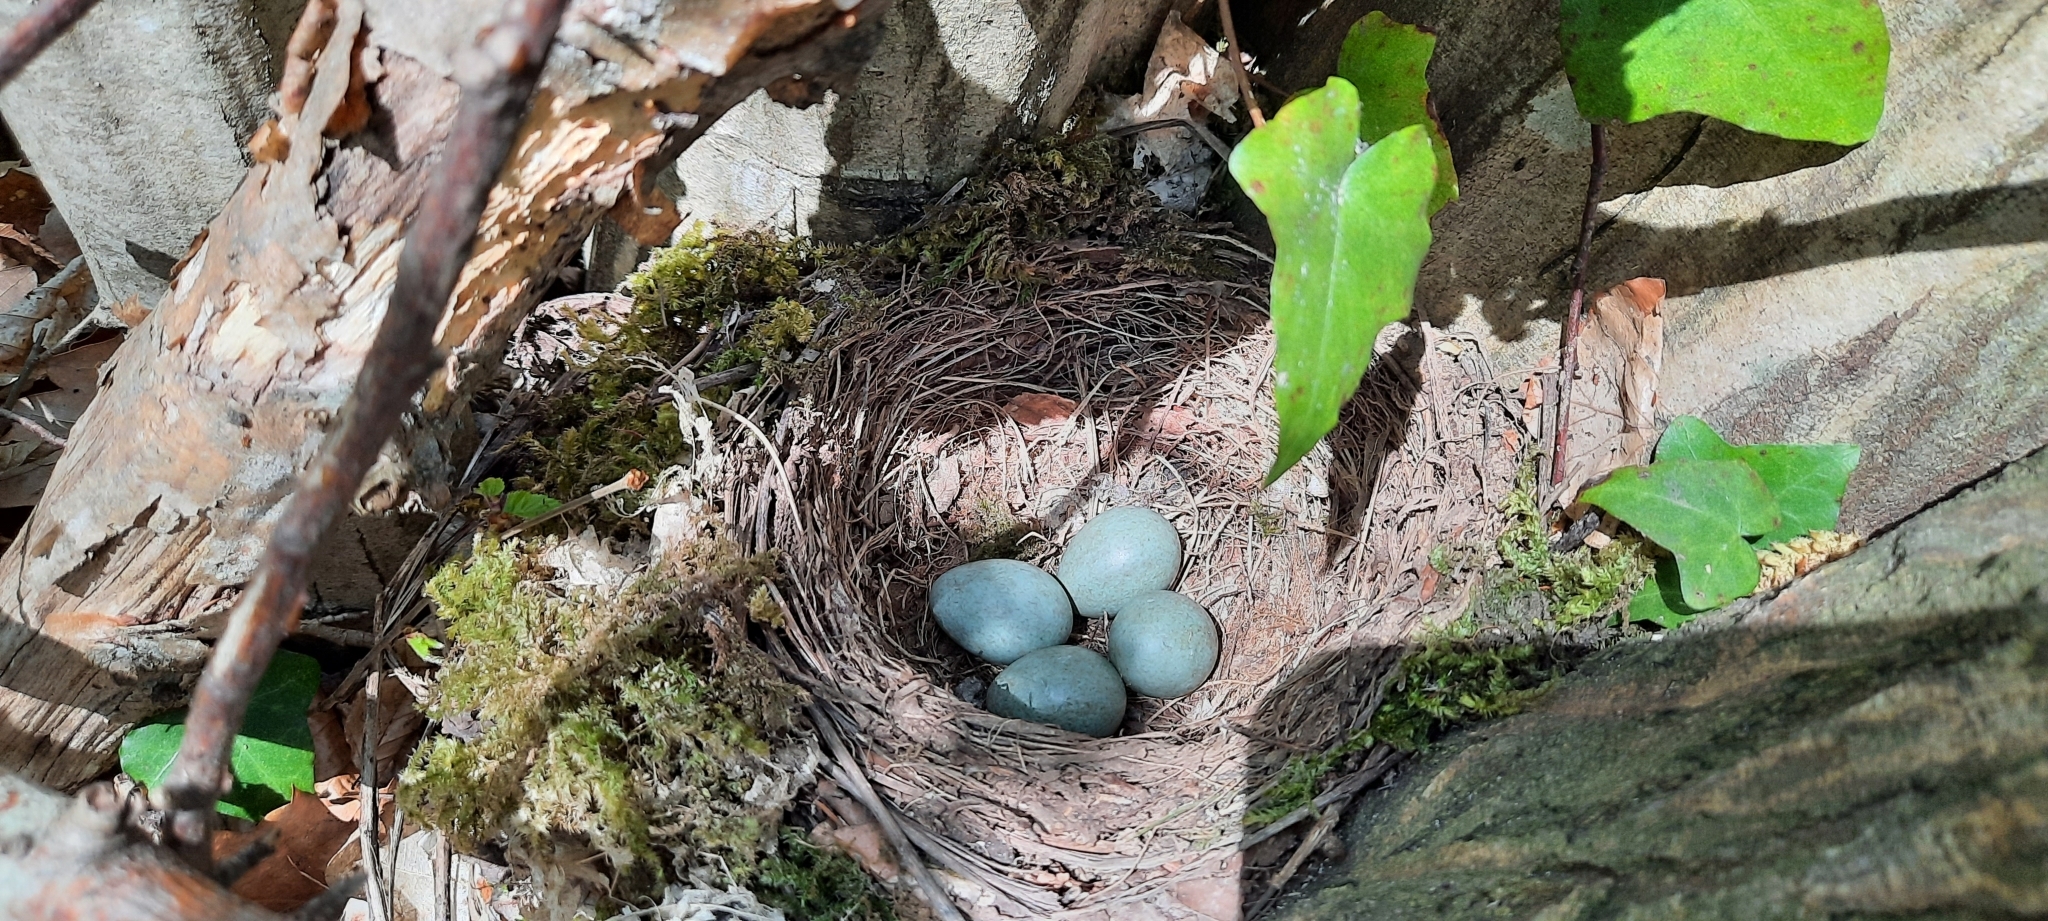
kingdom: Animalia
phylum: Chordata
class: Aves
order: Passeriformes
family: Turdidae
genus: Turdus
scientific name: Turdus merula
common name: Common blackbird
